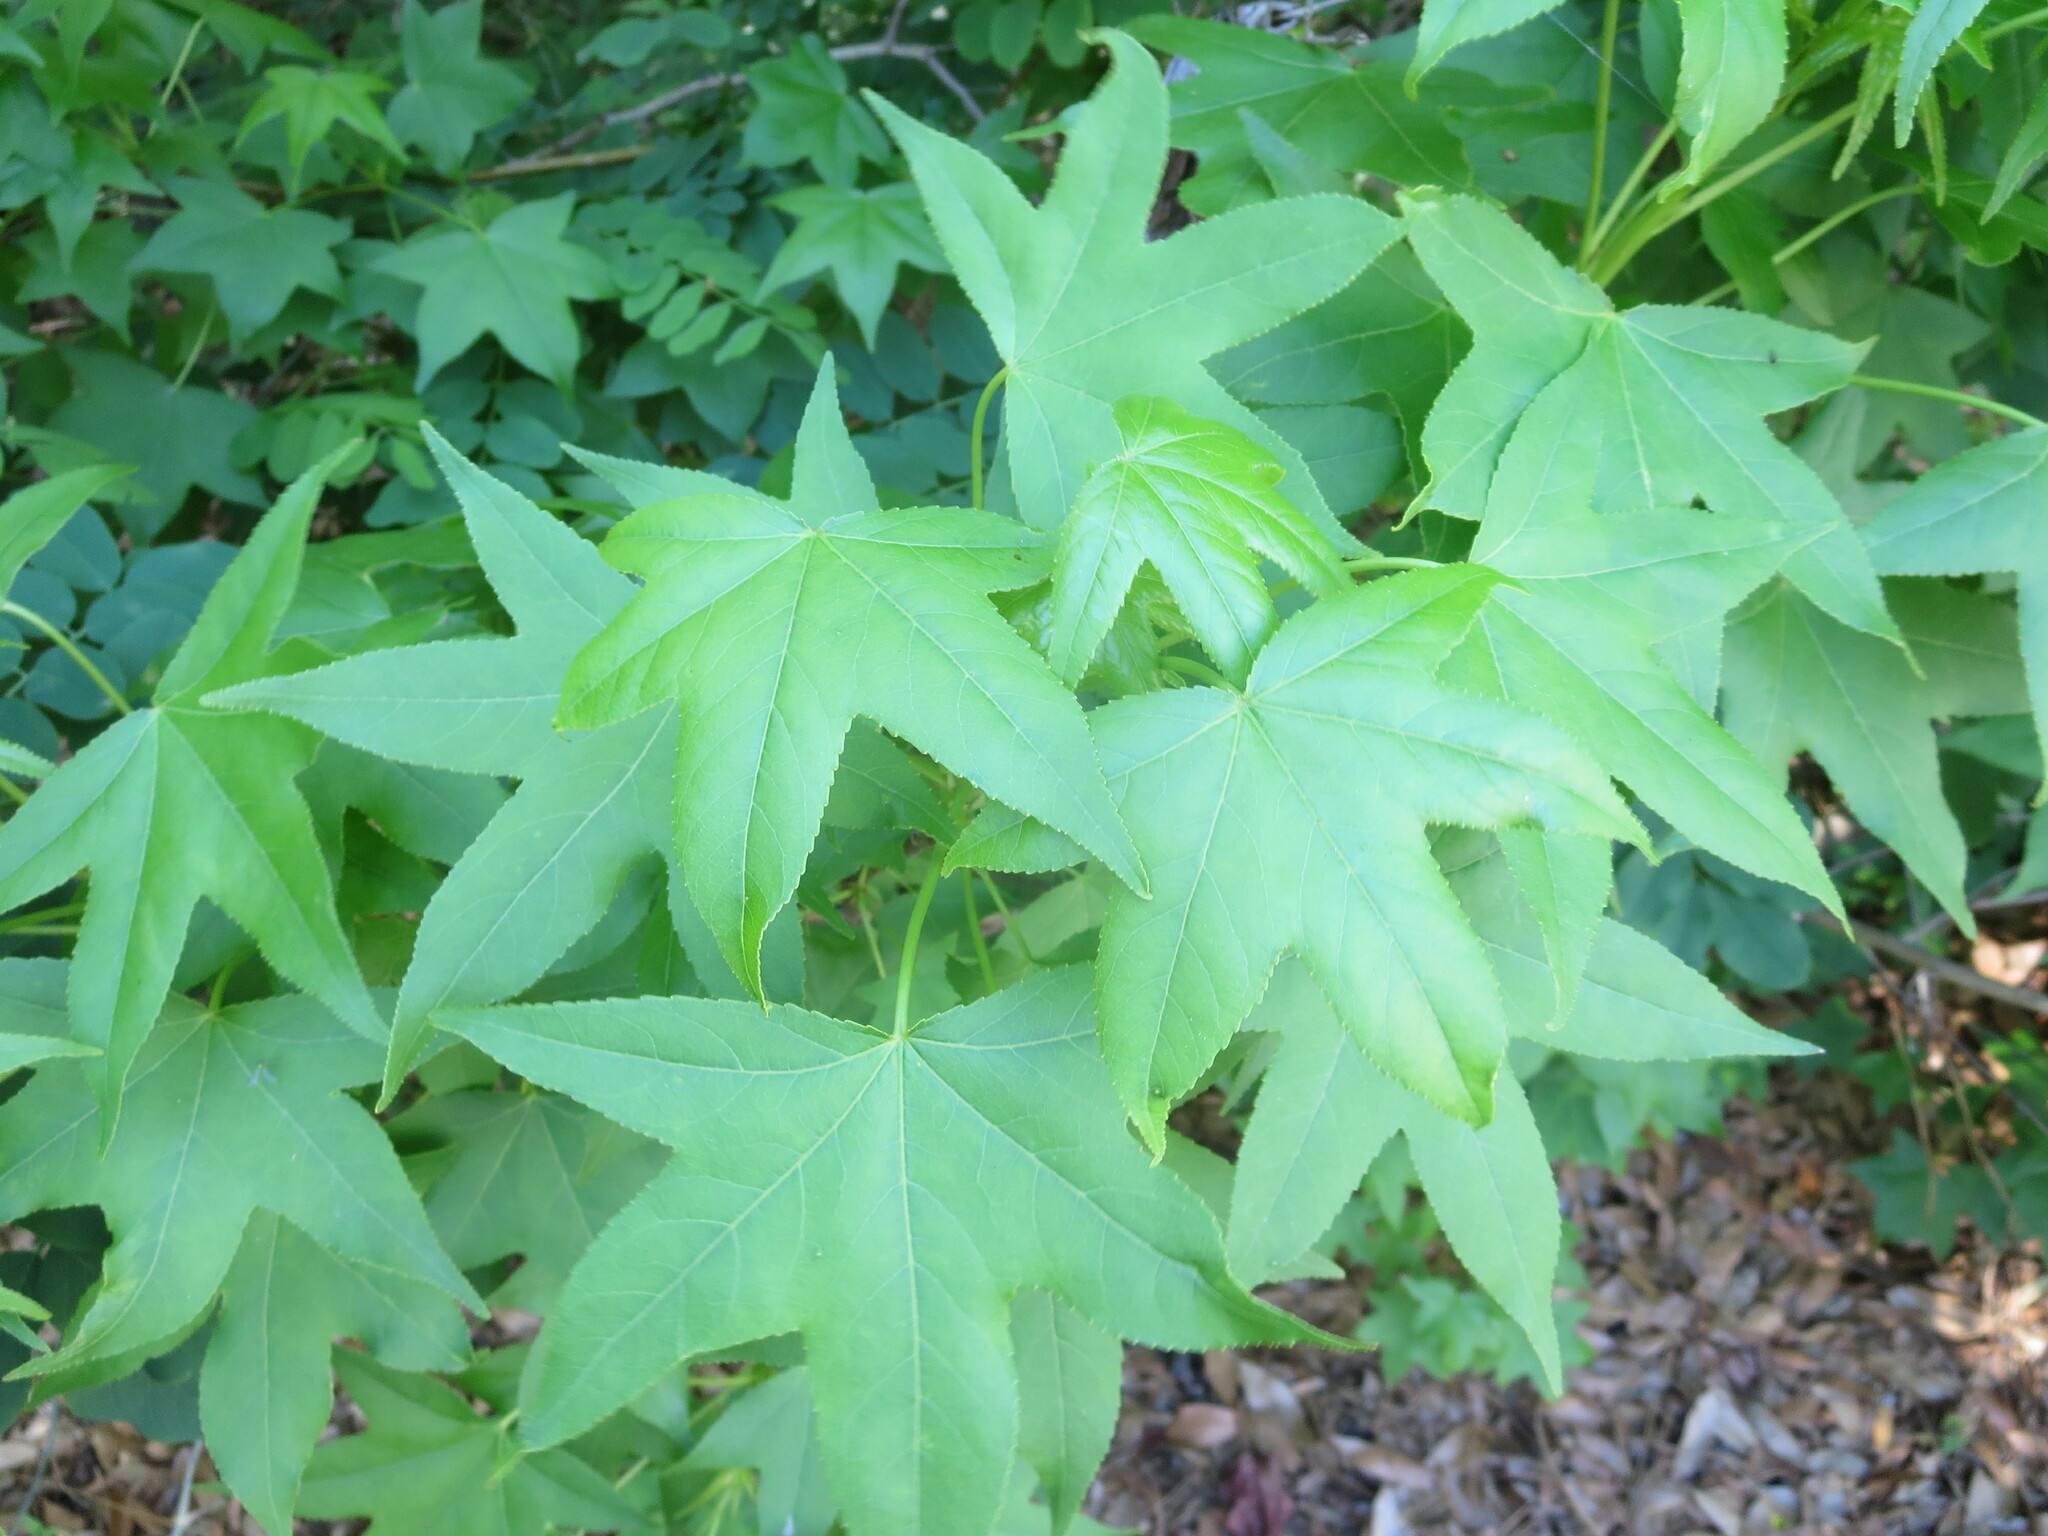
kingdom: Plantae
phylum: Tracheophyta
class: Magnoliopsida
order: Saxifragales
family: Altingiaceae
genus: Liquidambar
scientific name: Liquidambar styraciflua
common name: Sweet gum
